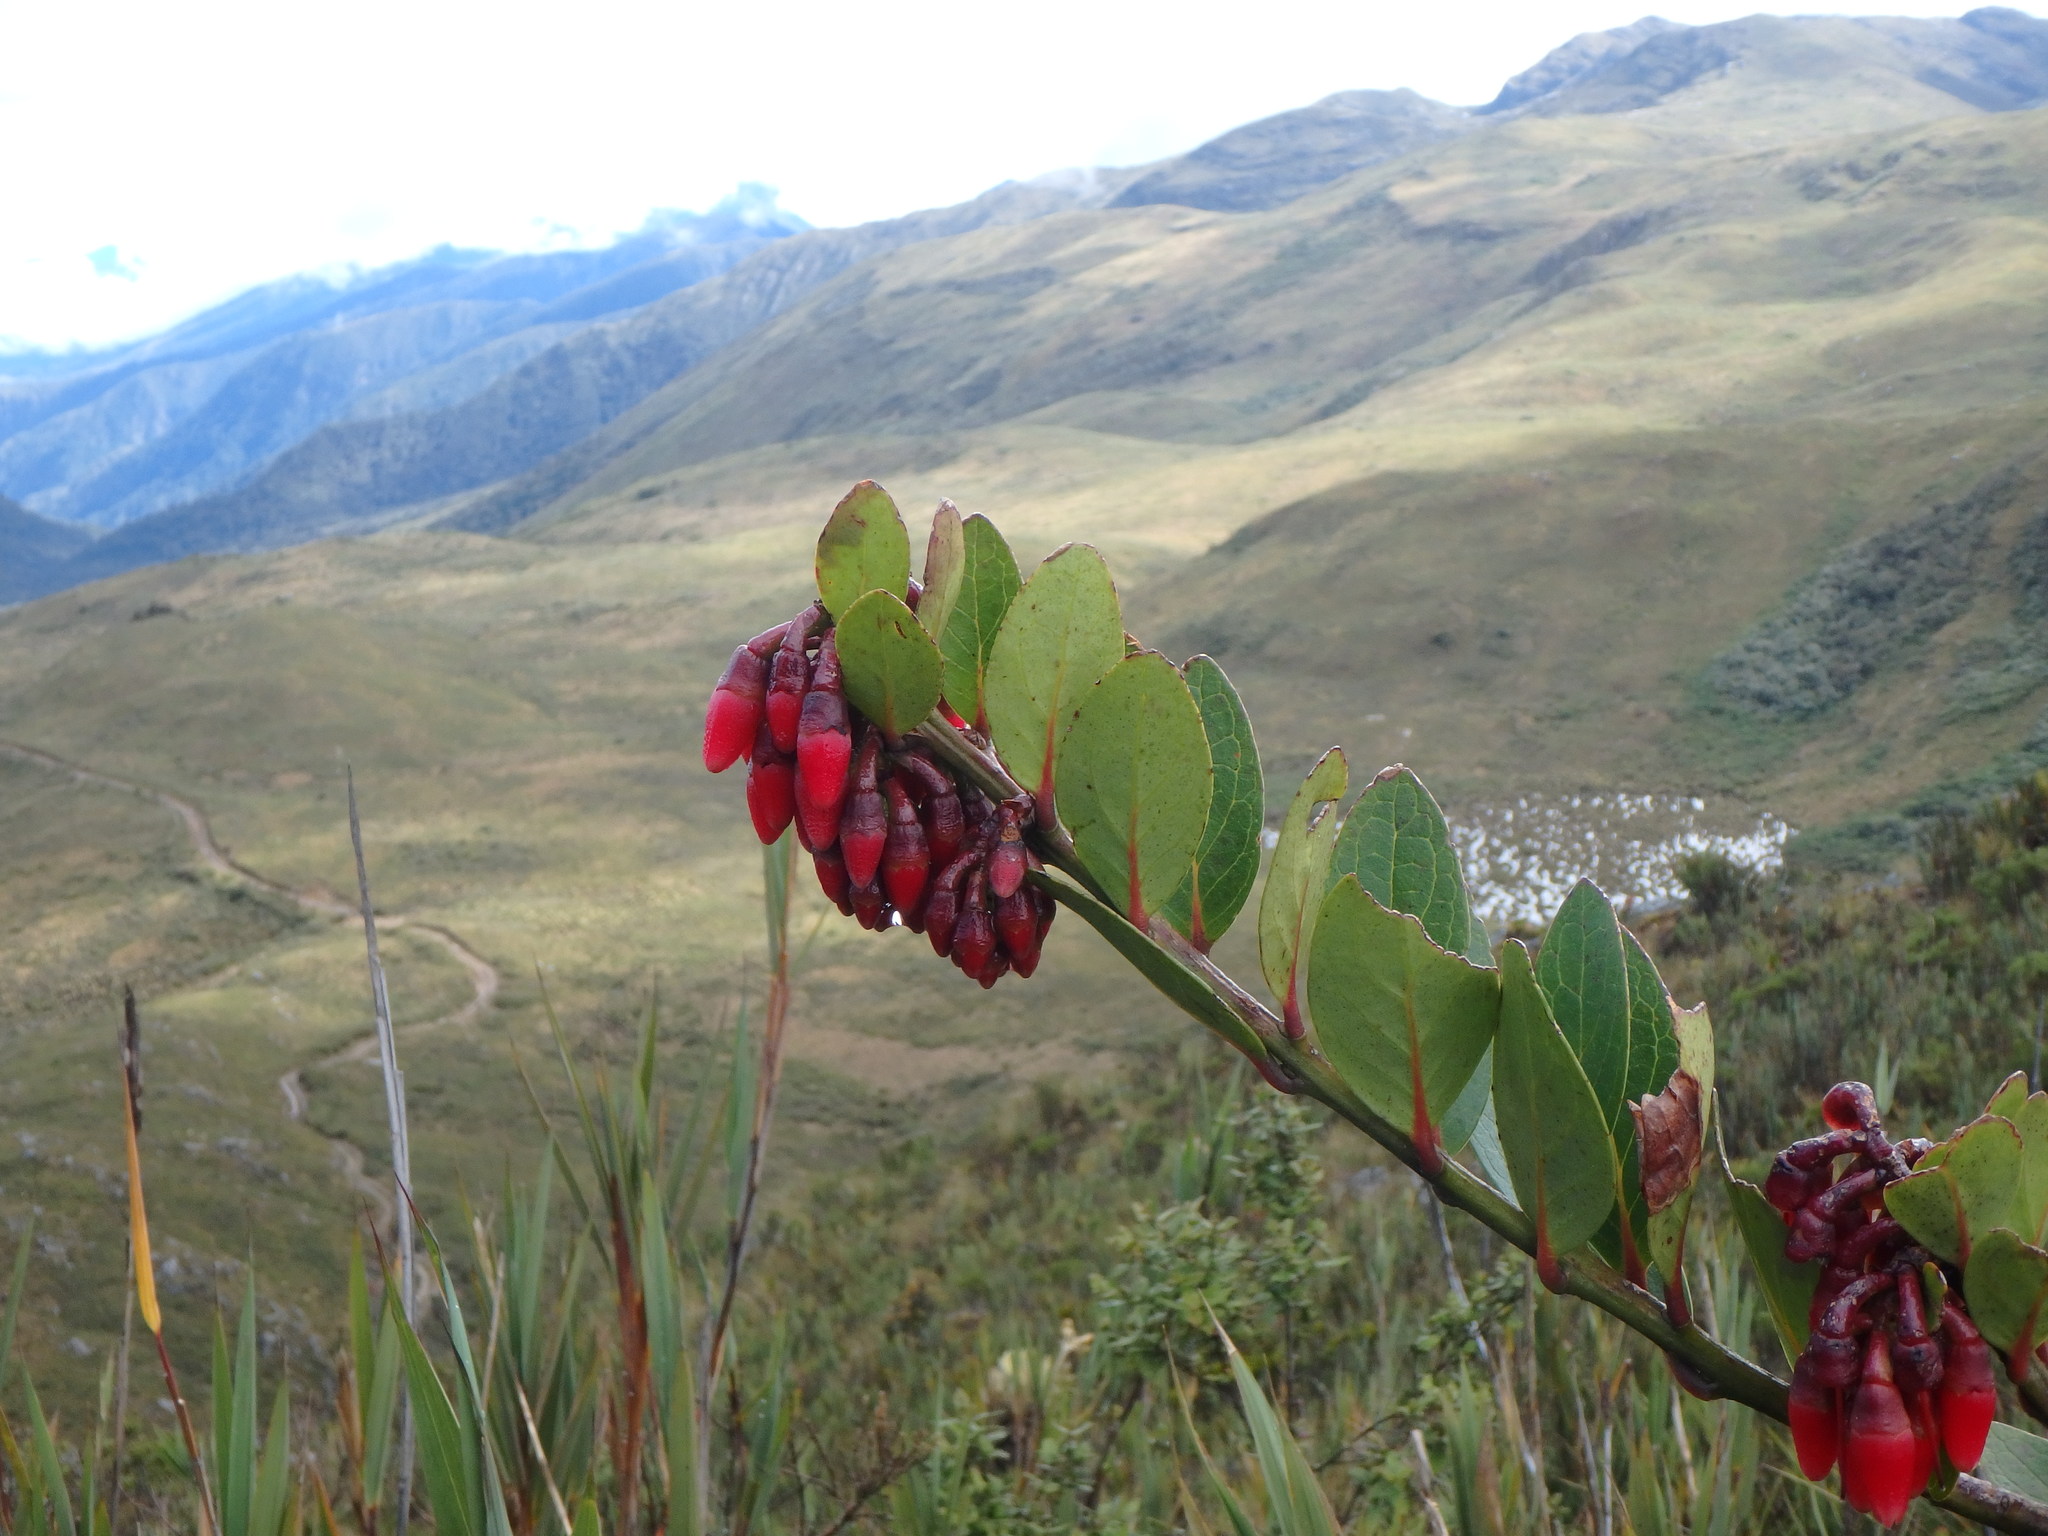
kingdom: Plantae
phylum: Tracheophyta
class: Magnoliopsida
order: Ericales
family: Ericaceae
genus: Macleania
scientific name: Macleania rupestris
